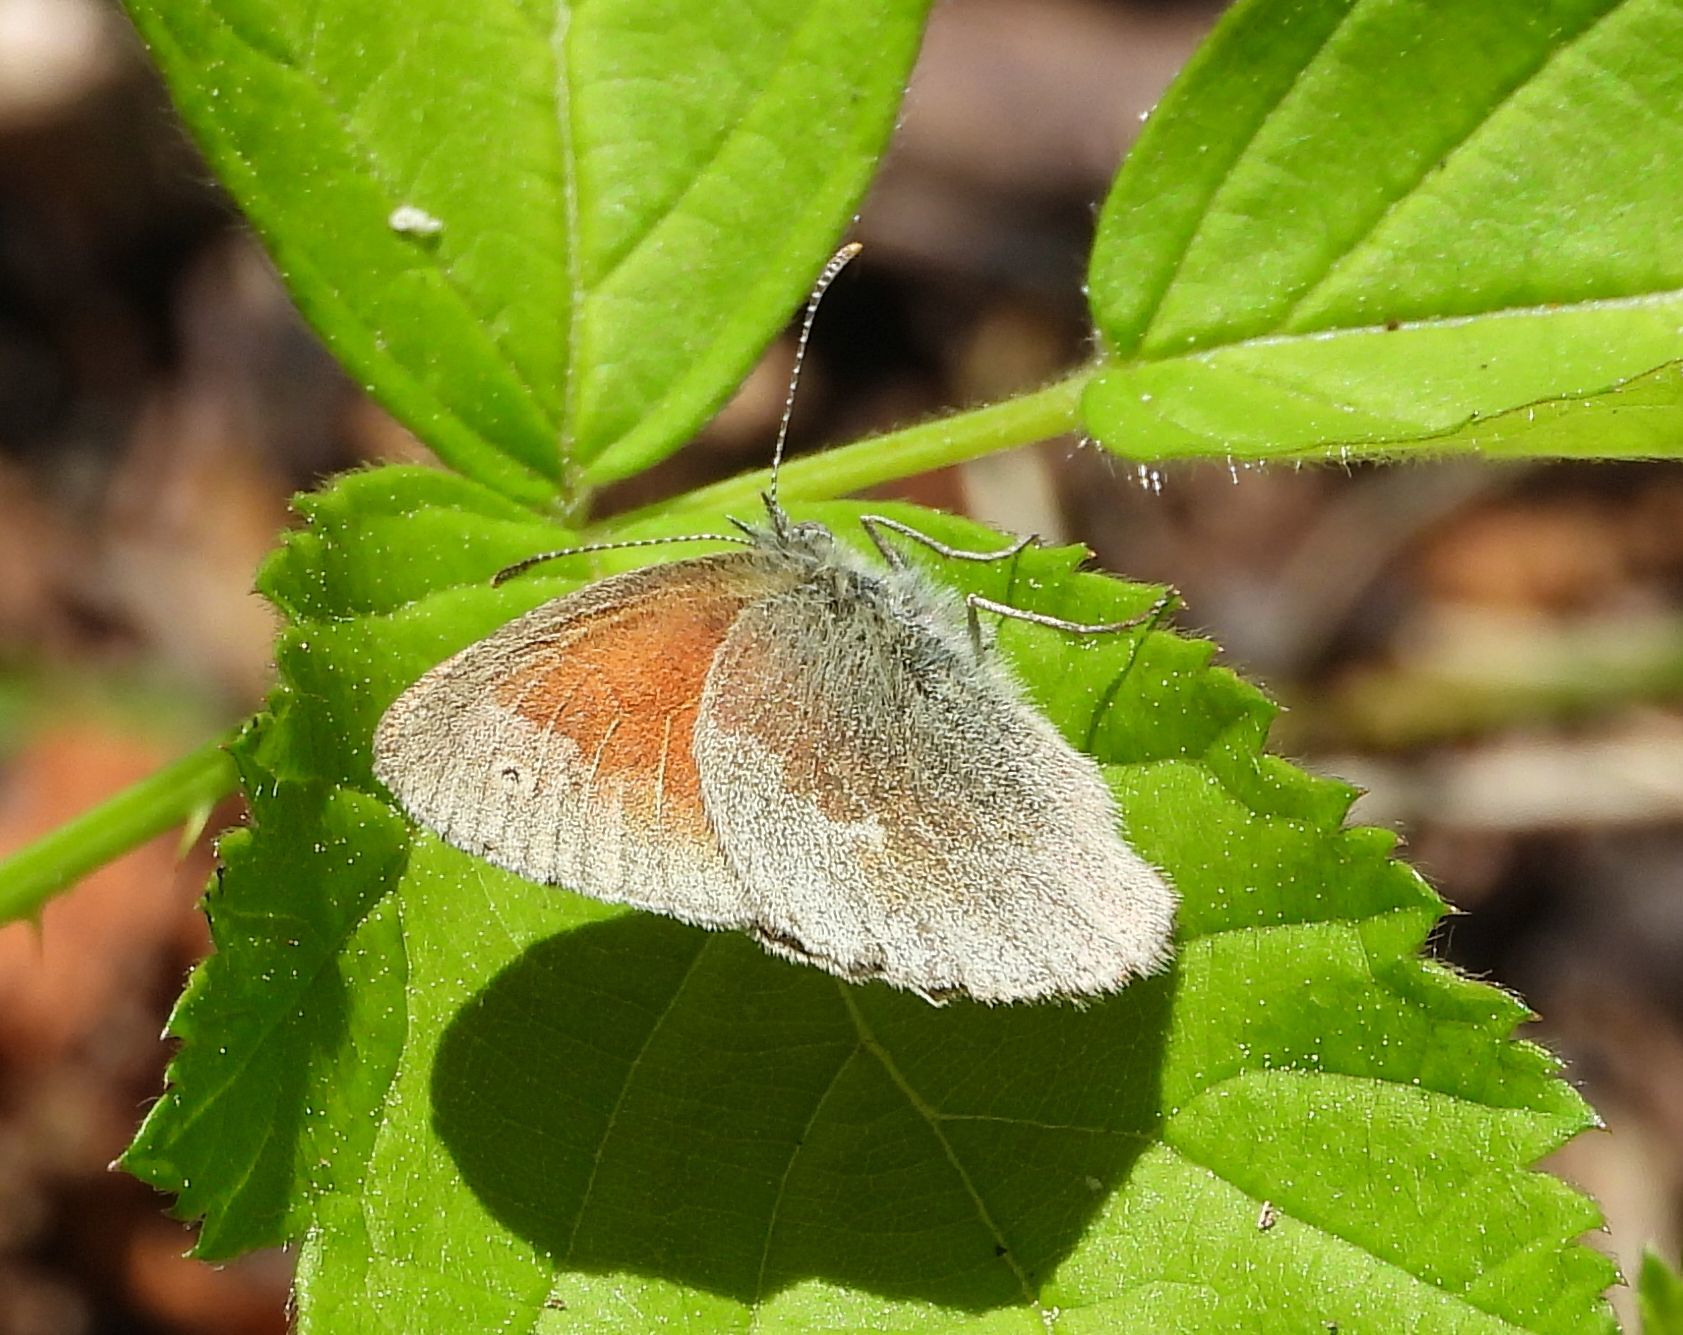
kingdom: Animalia
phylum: Arthropoda
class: Insecta
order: Lepidoptera
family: Nymphalidae
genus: Coenonympha
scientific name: Coenonympha california
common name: Common ringlet
